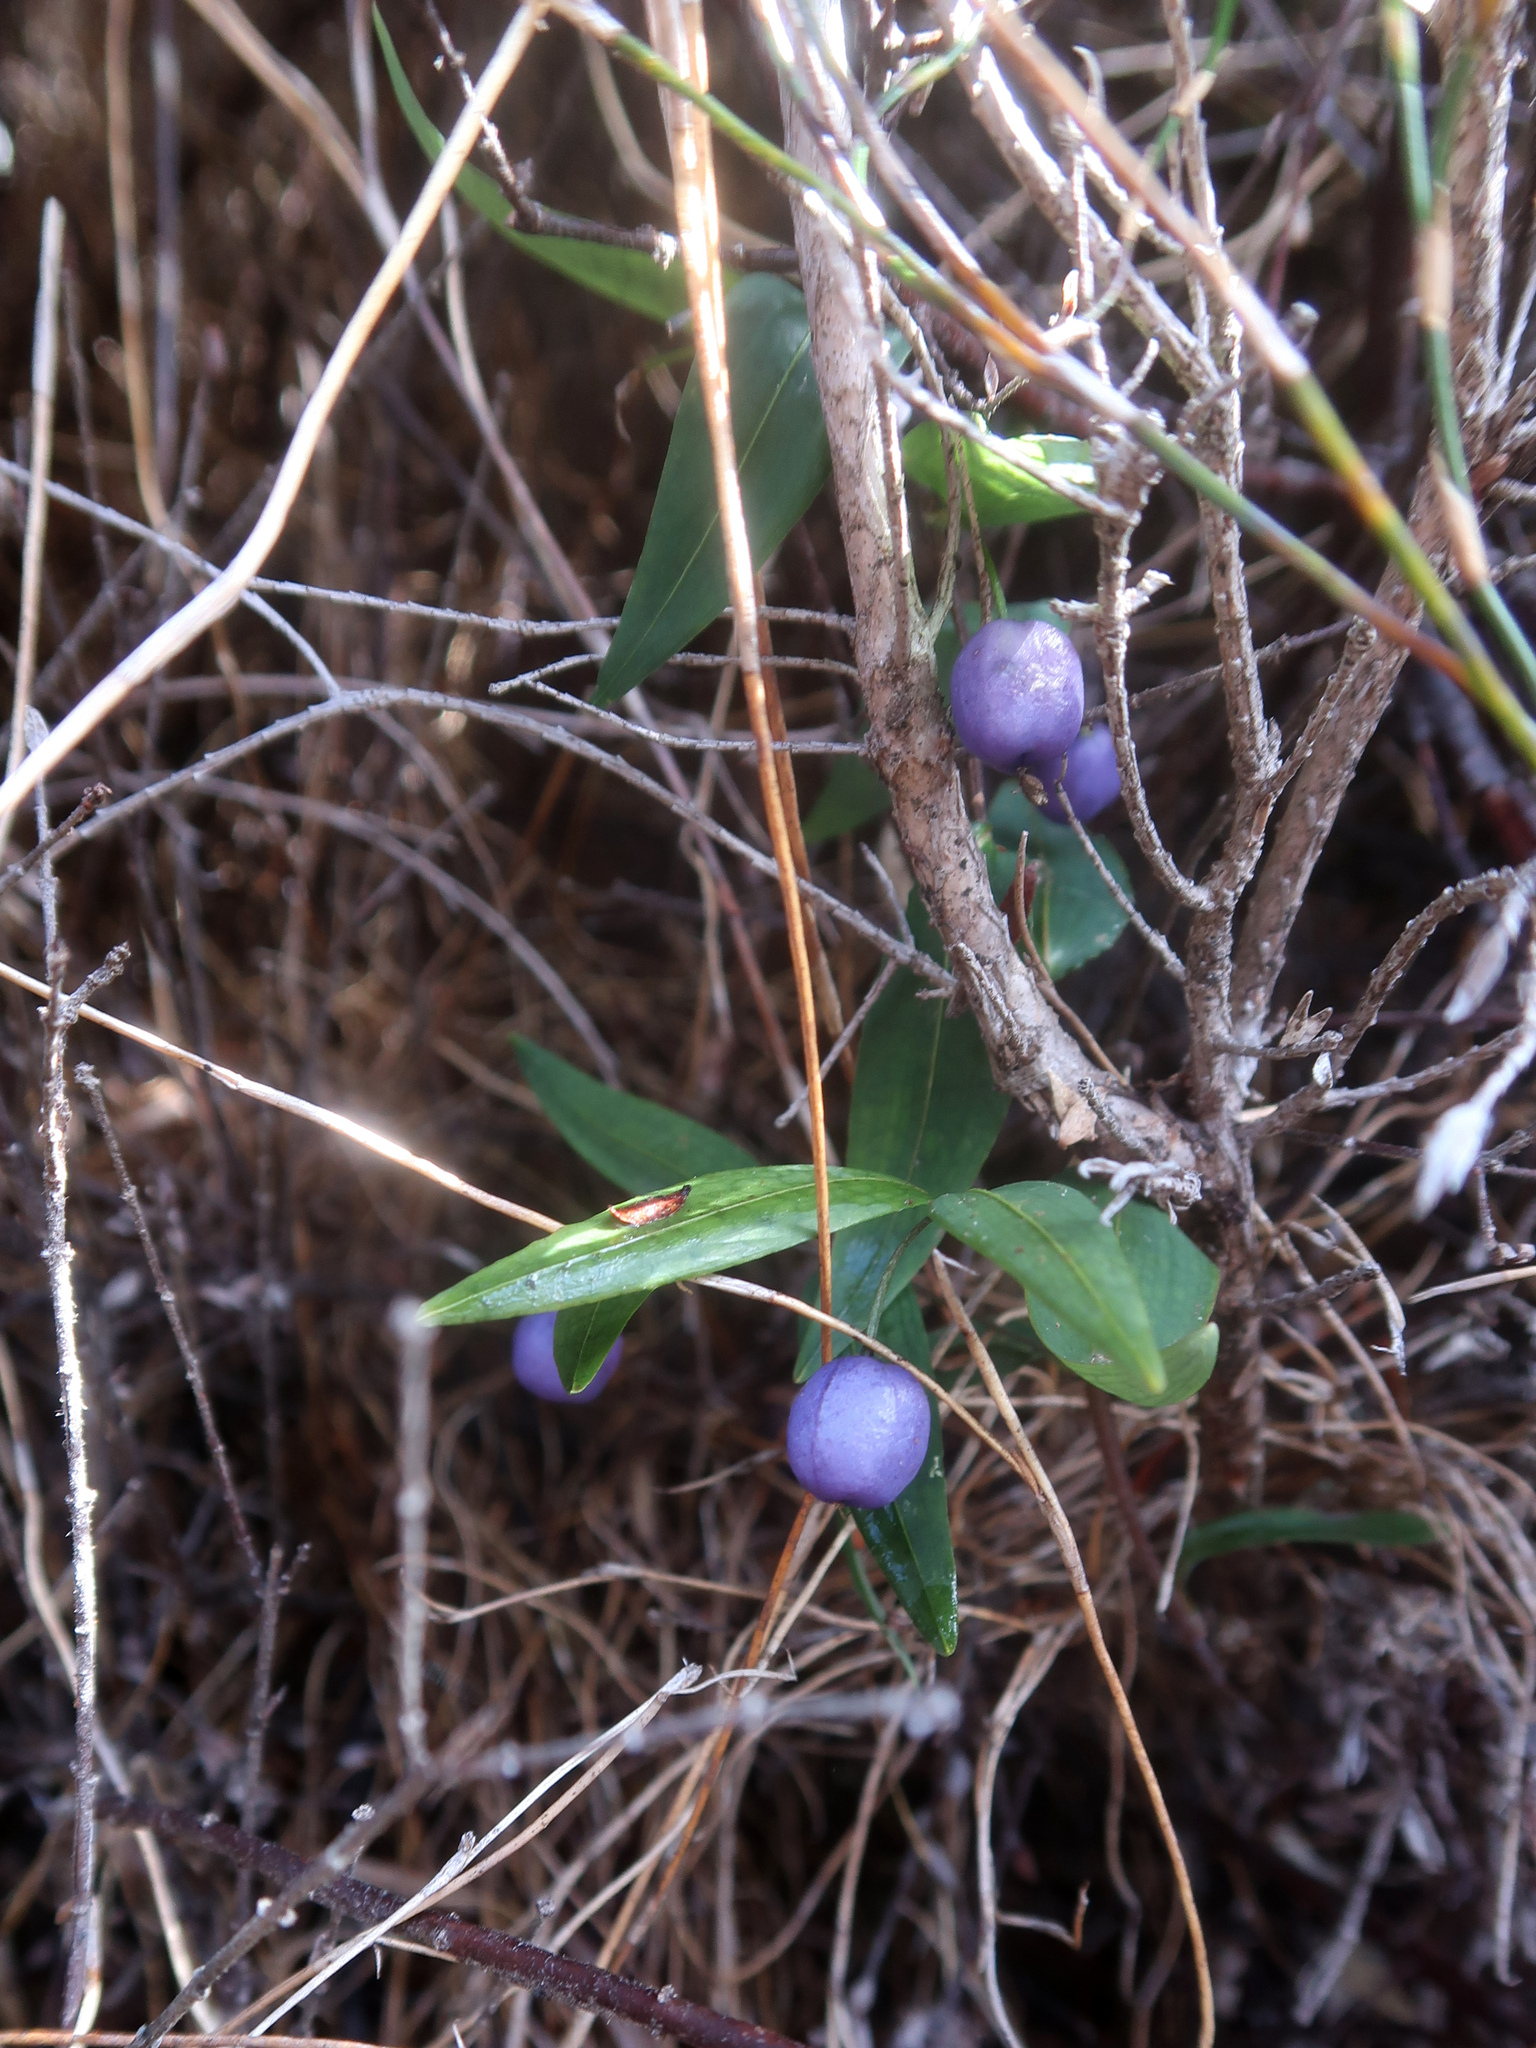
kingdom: Plantae
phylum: Tracheophyta
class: Liliopsida
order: Liliales
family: Alstroemeriaceae
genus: Drymophila
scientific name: Drymophila cyanocarpa
